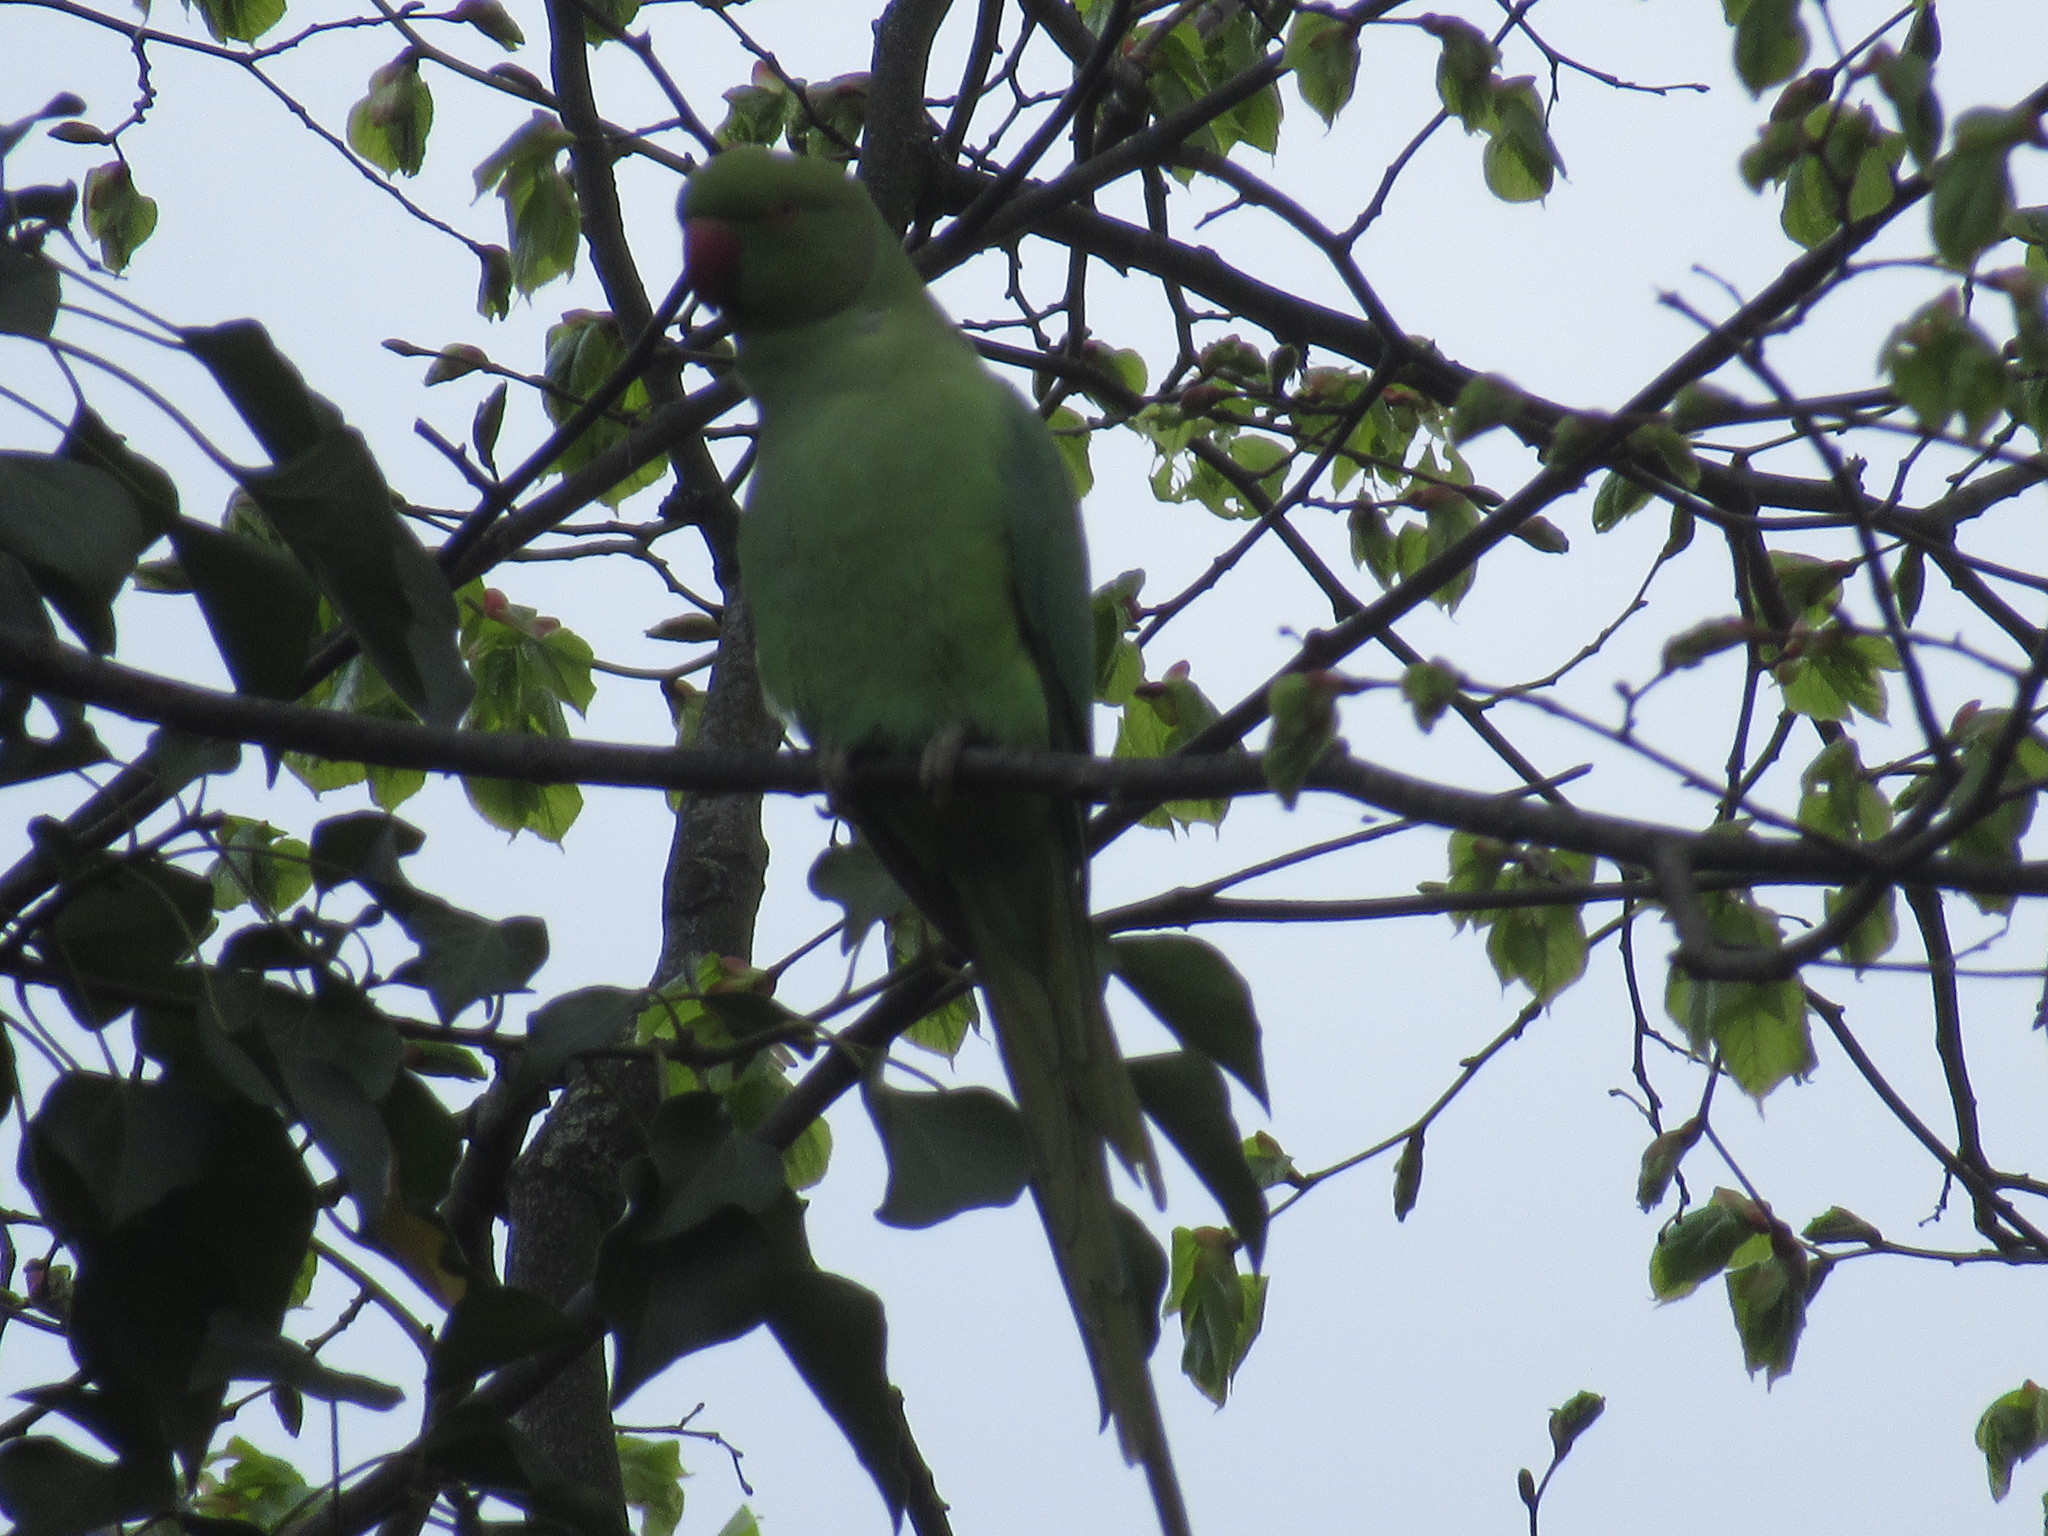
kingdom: Animalia
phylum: Chordata
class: Aves
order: Psittaciformes
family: Psittacidae
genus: Psittacula
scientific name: Psittacula krameri
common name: Rose-ringed parakeet
